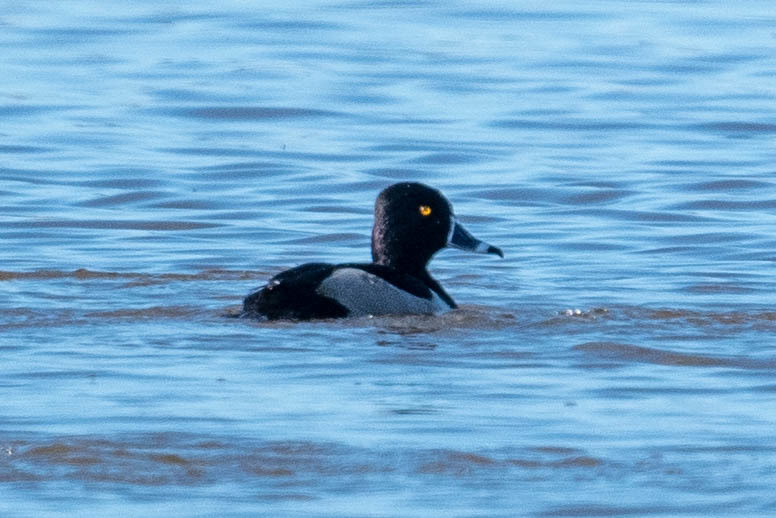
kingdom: Animalia
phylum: Chordata
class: Aves
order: Anseriformes
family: Anatidae
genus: Aythya
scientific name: Aythya collaris
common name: Ring-necked duck
